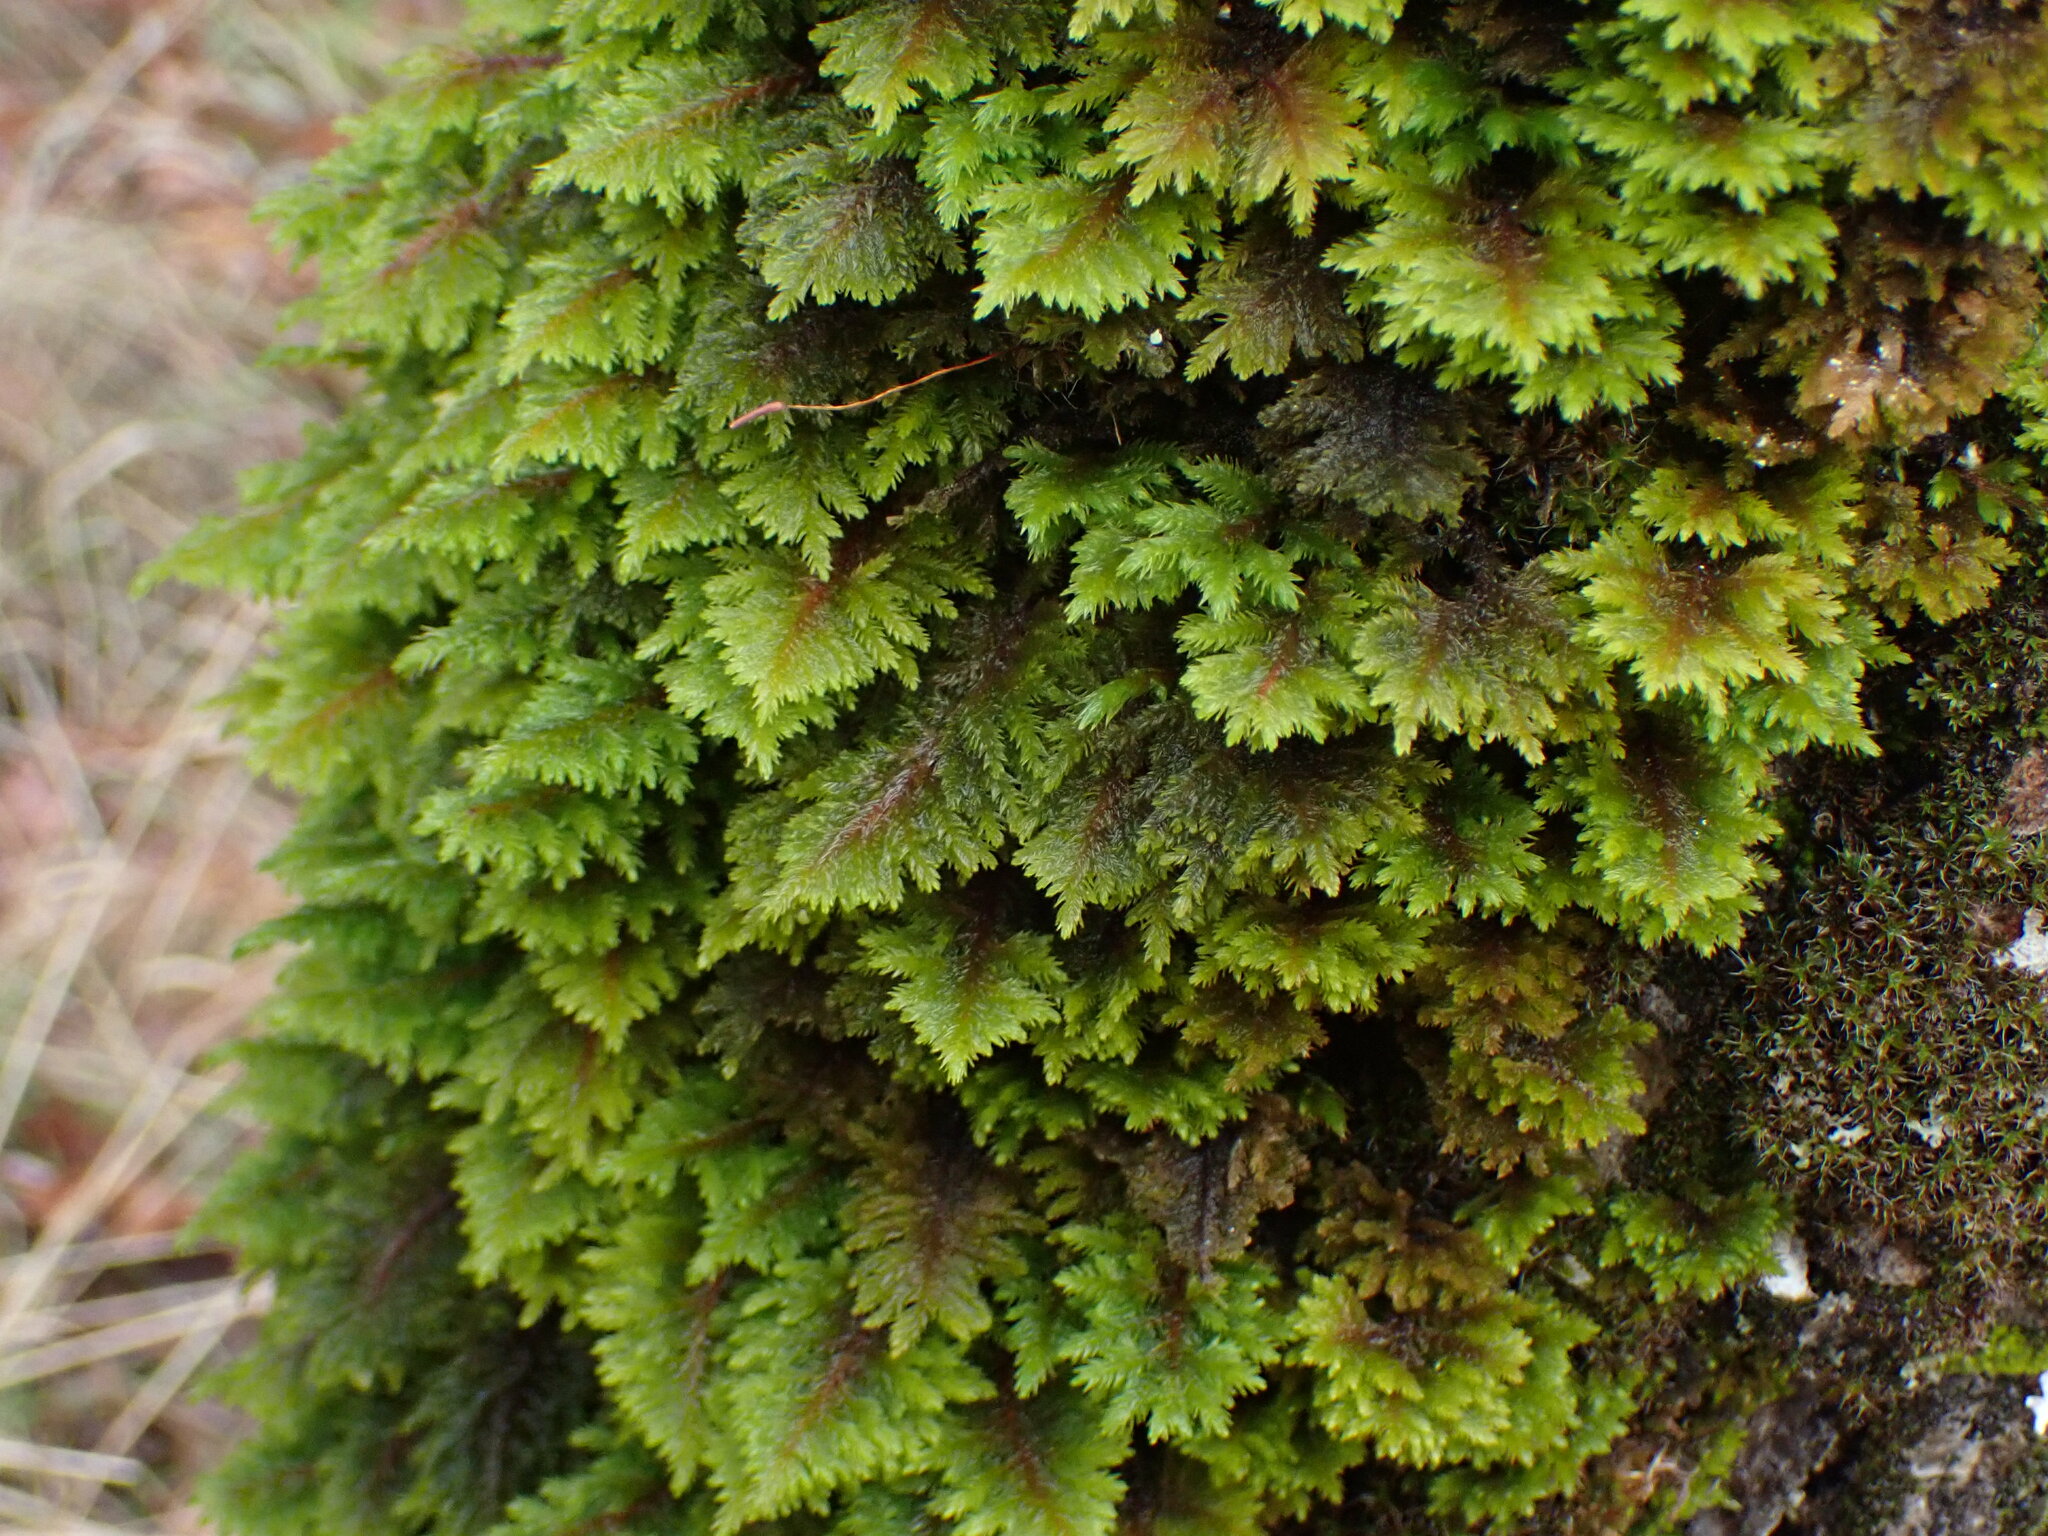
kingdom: Plantae
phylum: Bryophyta
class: Bryopsida
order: Hypnales
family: Cryphaeaceae
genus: Dendroalsia
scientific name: Dendroalsia abietina
